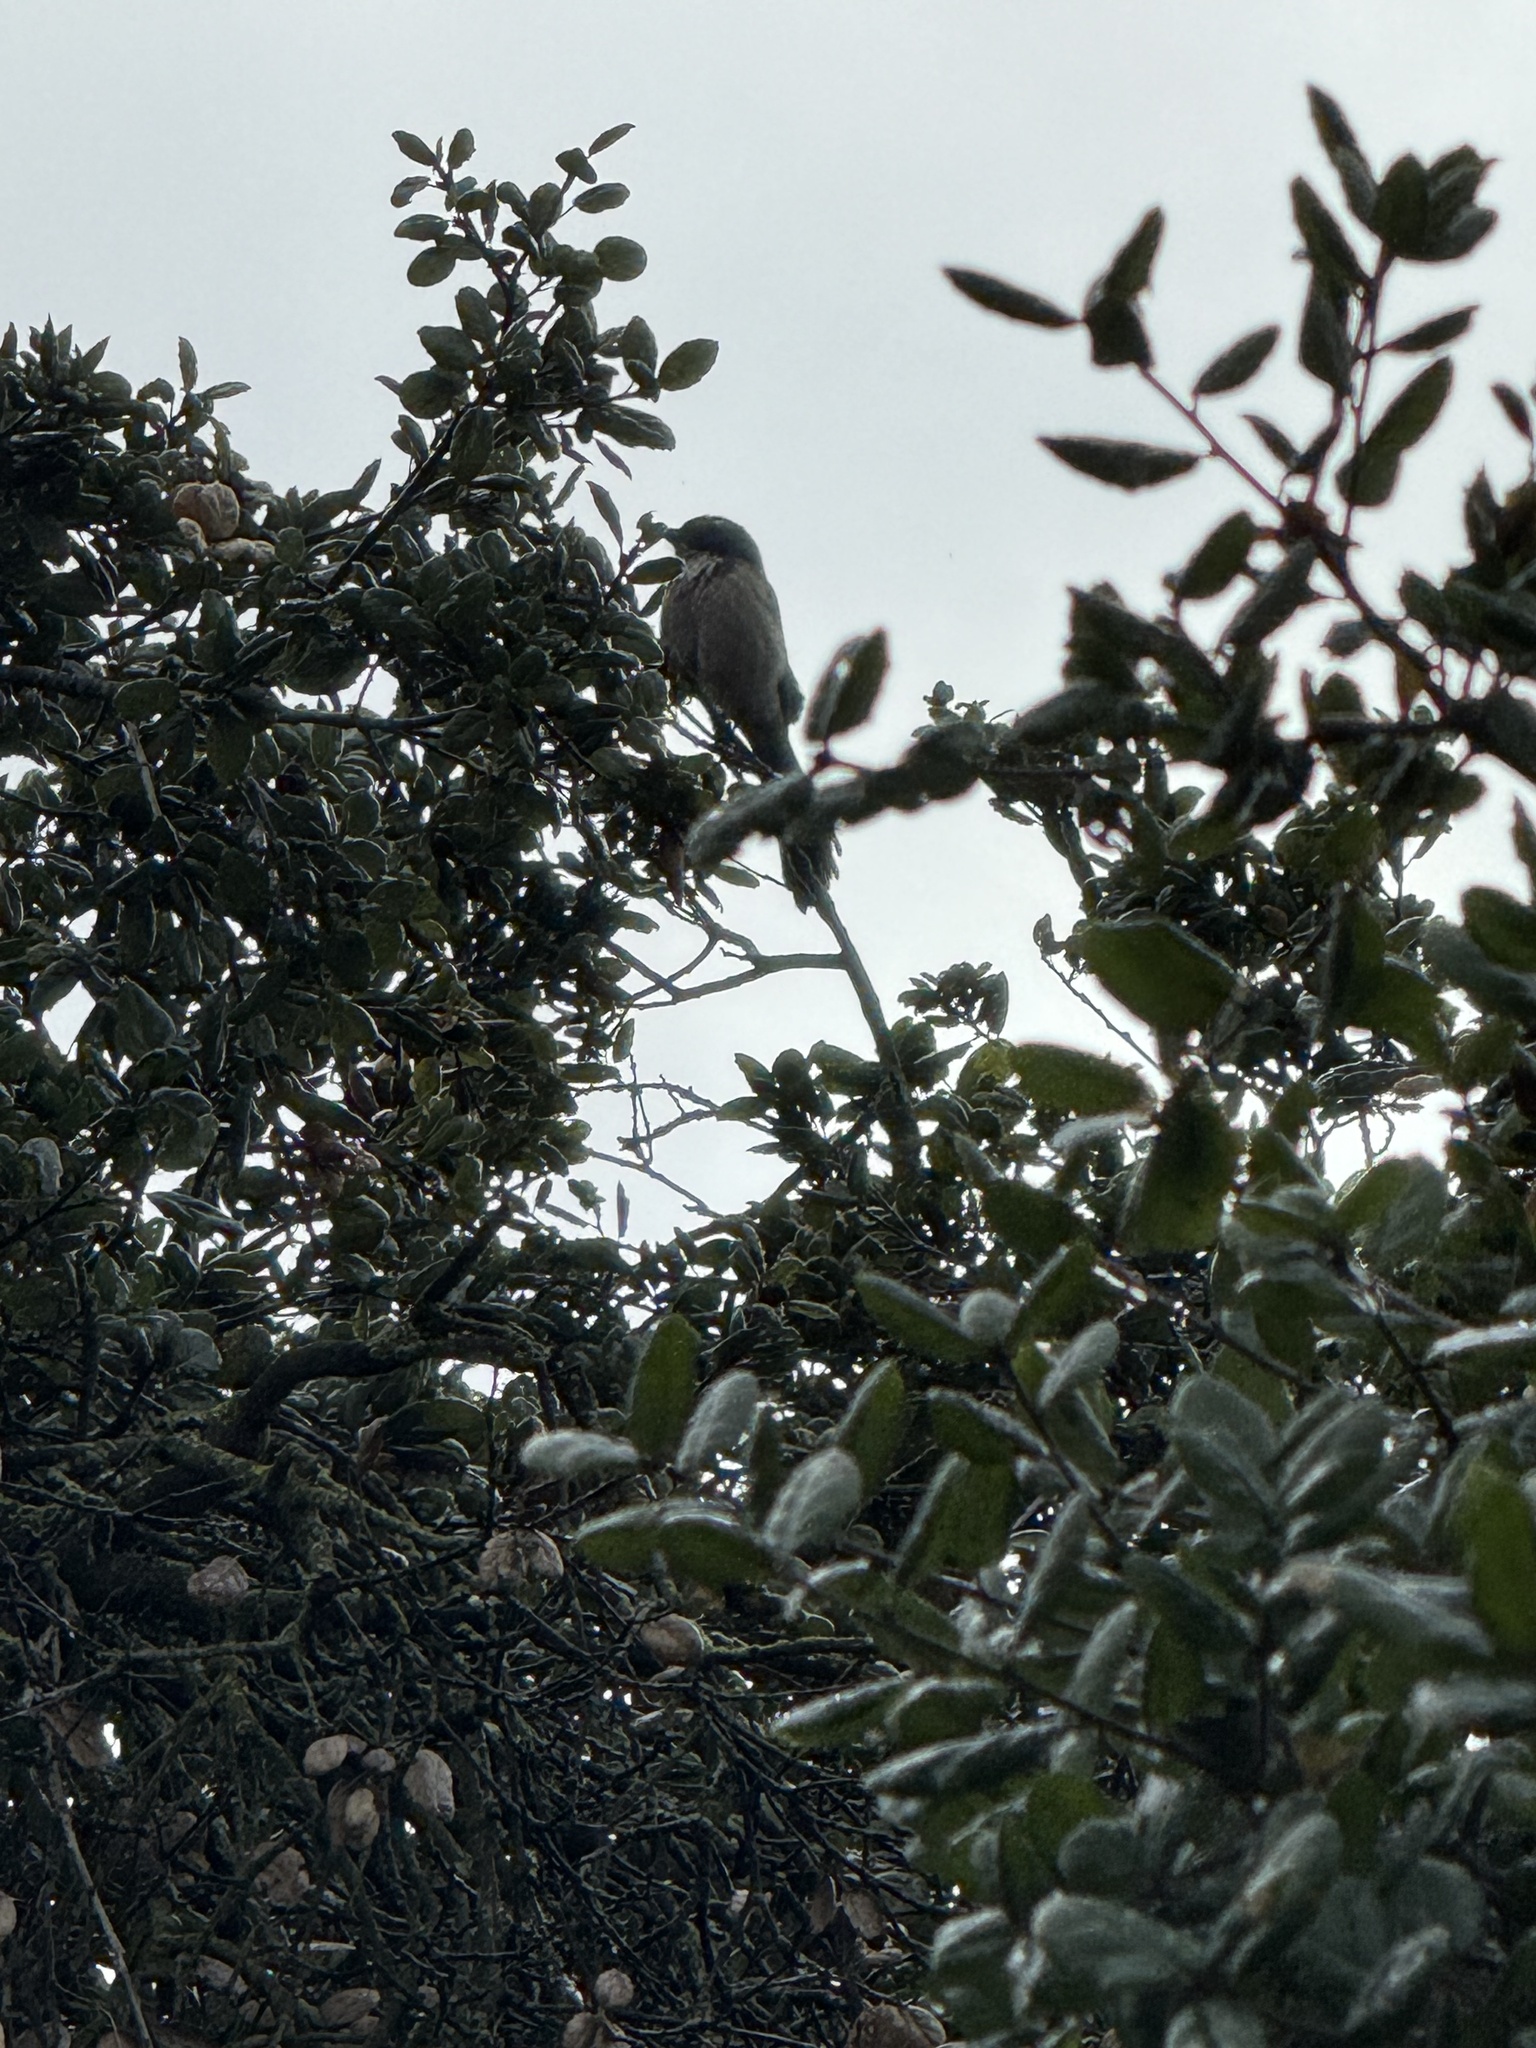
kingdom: Animalia
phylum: Chordata
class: Aves
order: Passeriformes
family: Corvidae
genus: Aphelocoma
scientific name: Aphelocoma californica
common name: California scrub-jay
